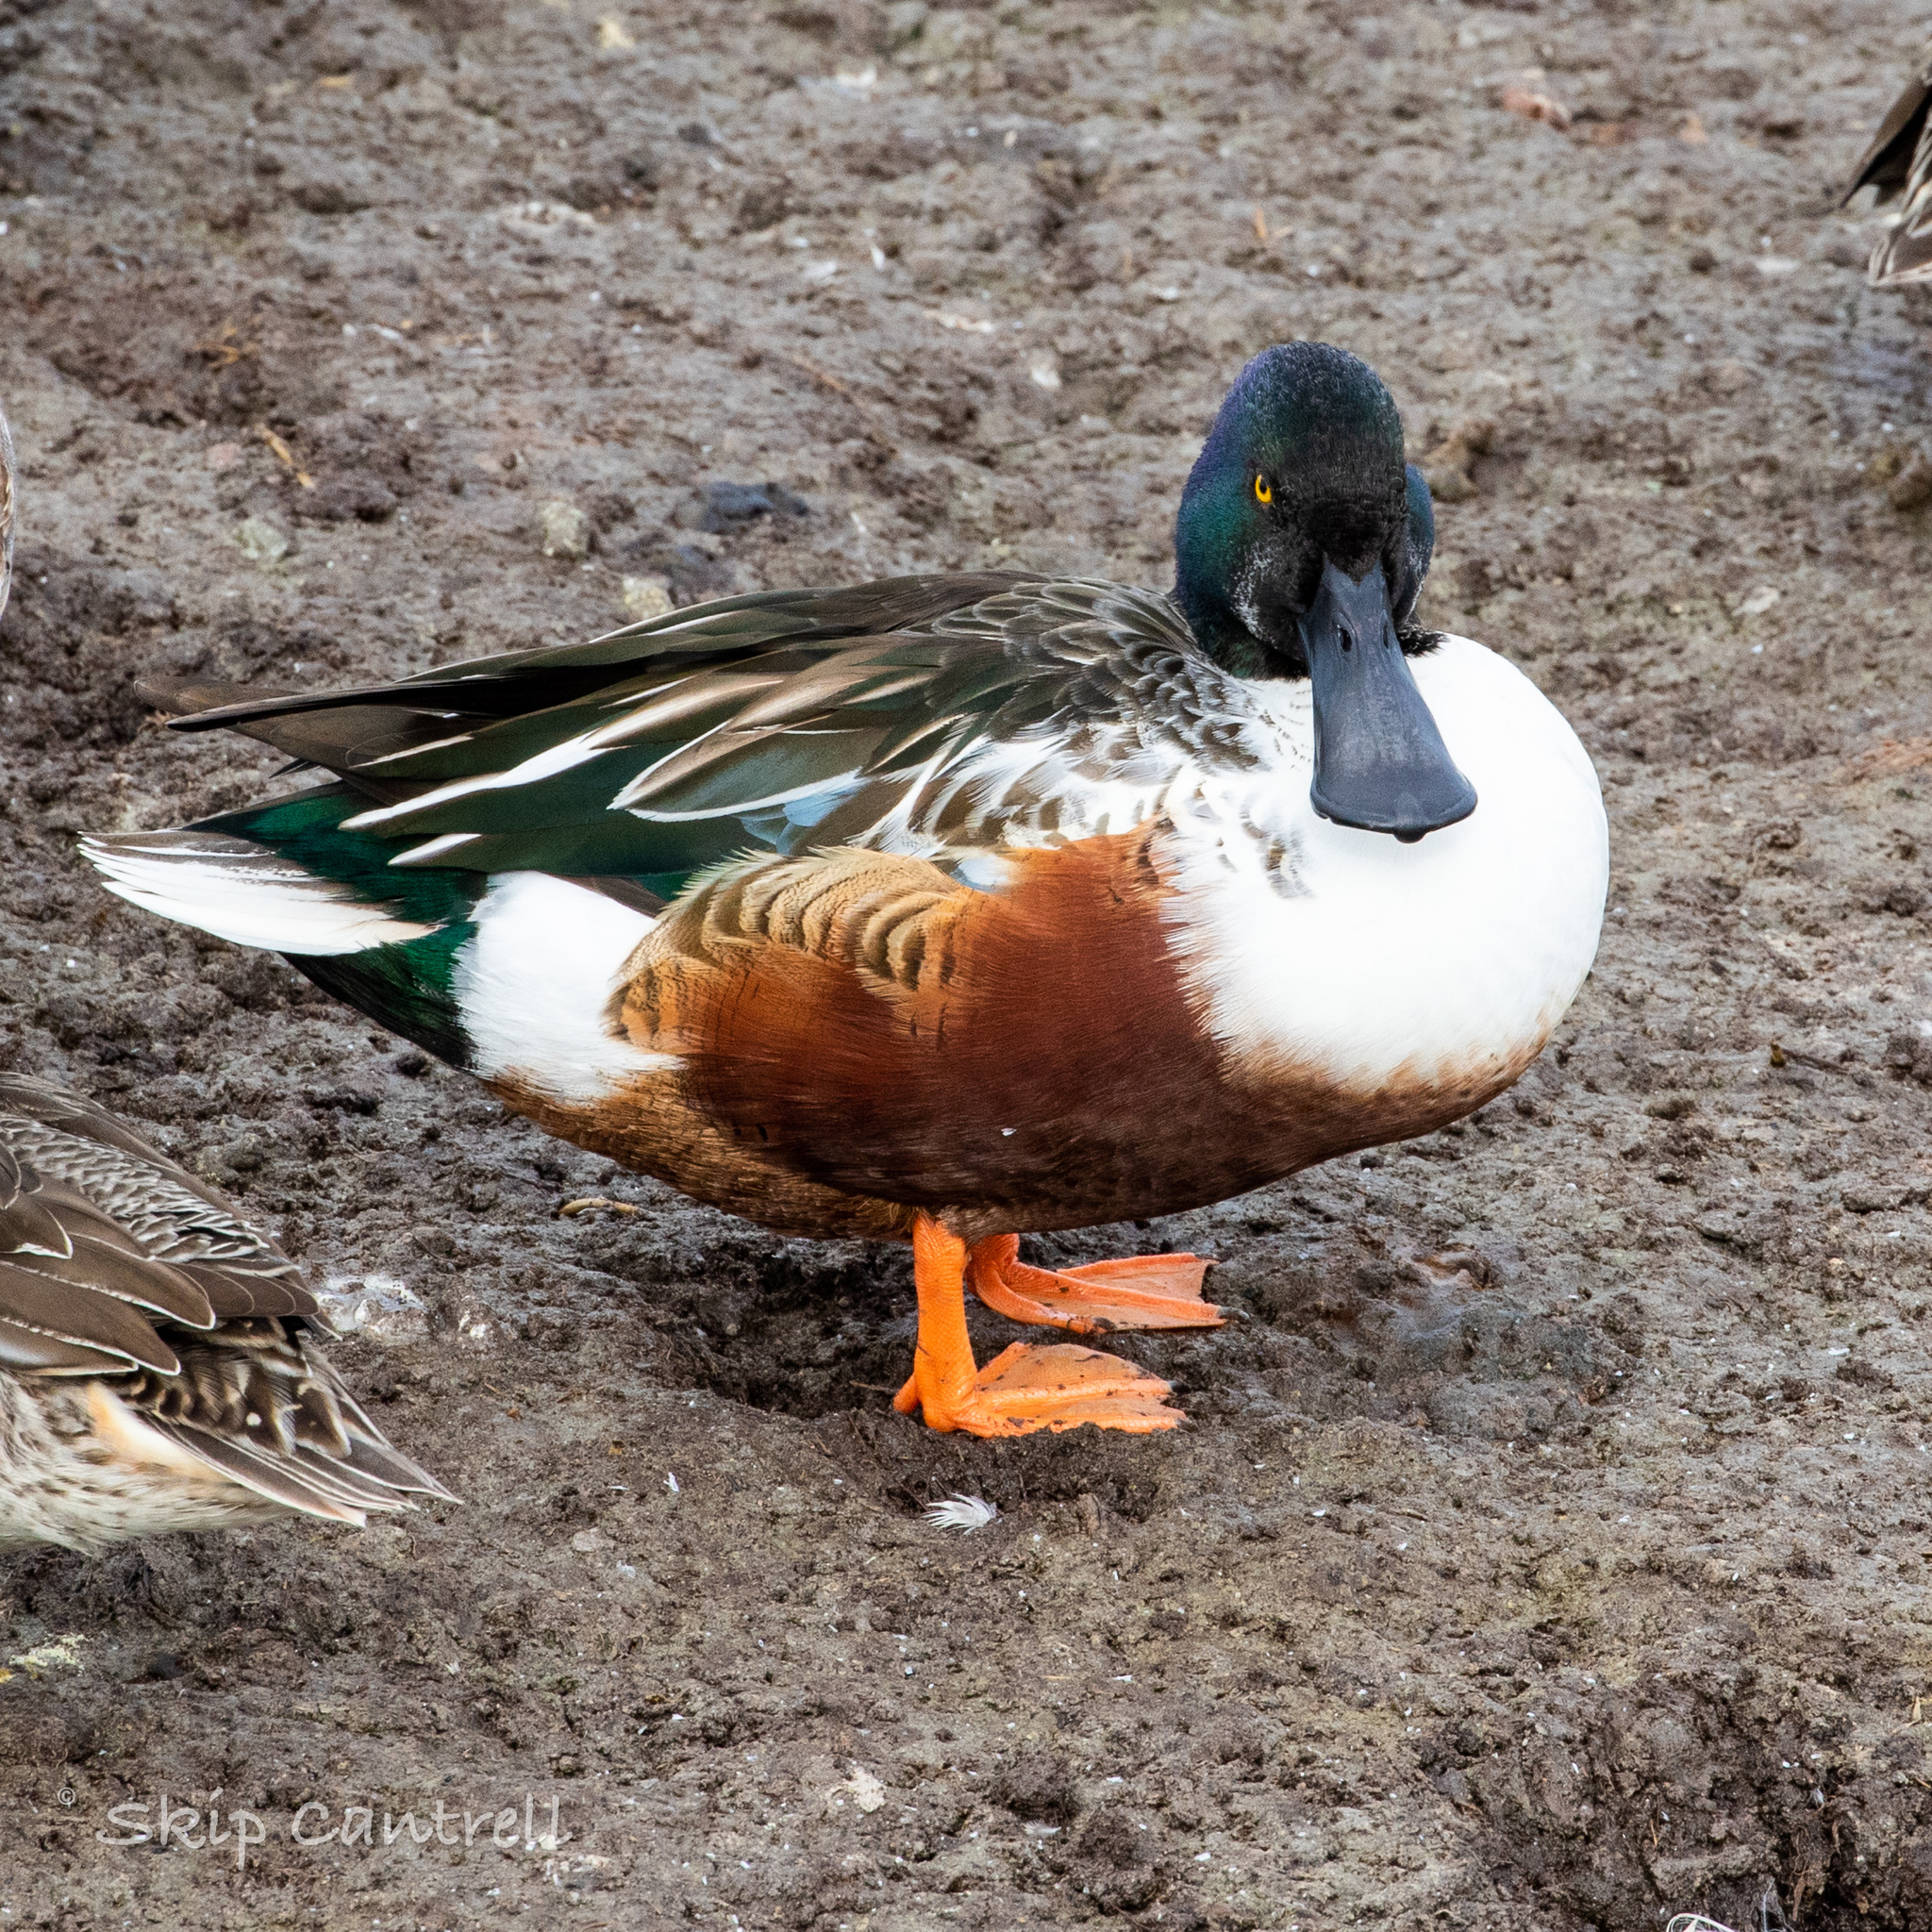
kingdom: Animalia
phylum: Chordata
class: Aves
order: Anseriformes
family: Anatidae
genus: Spatula
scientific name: Spatula clypeata
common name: Northern shoveler
